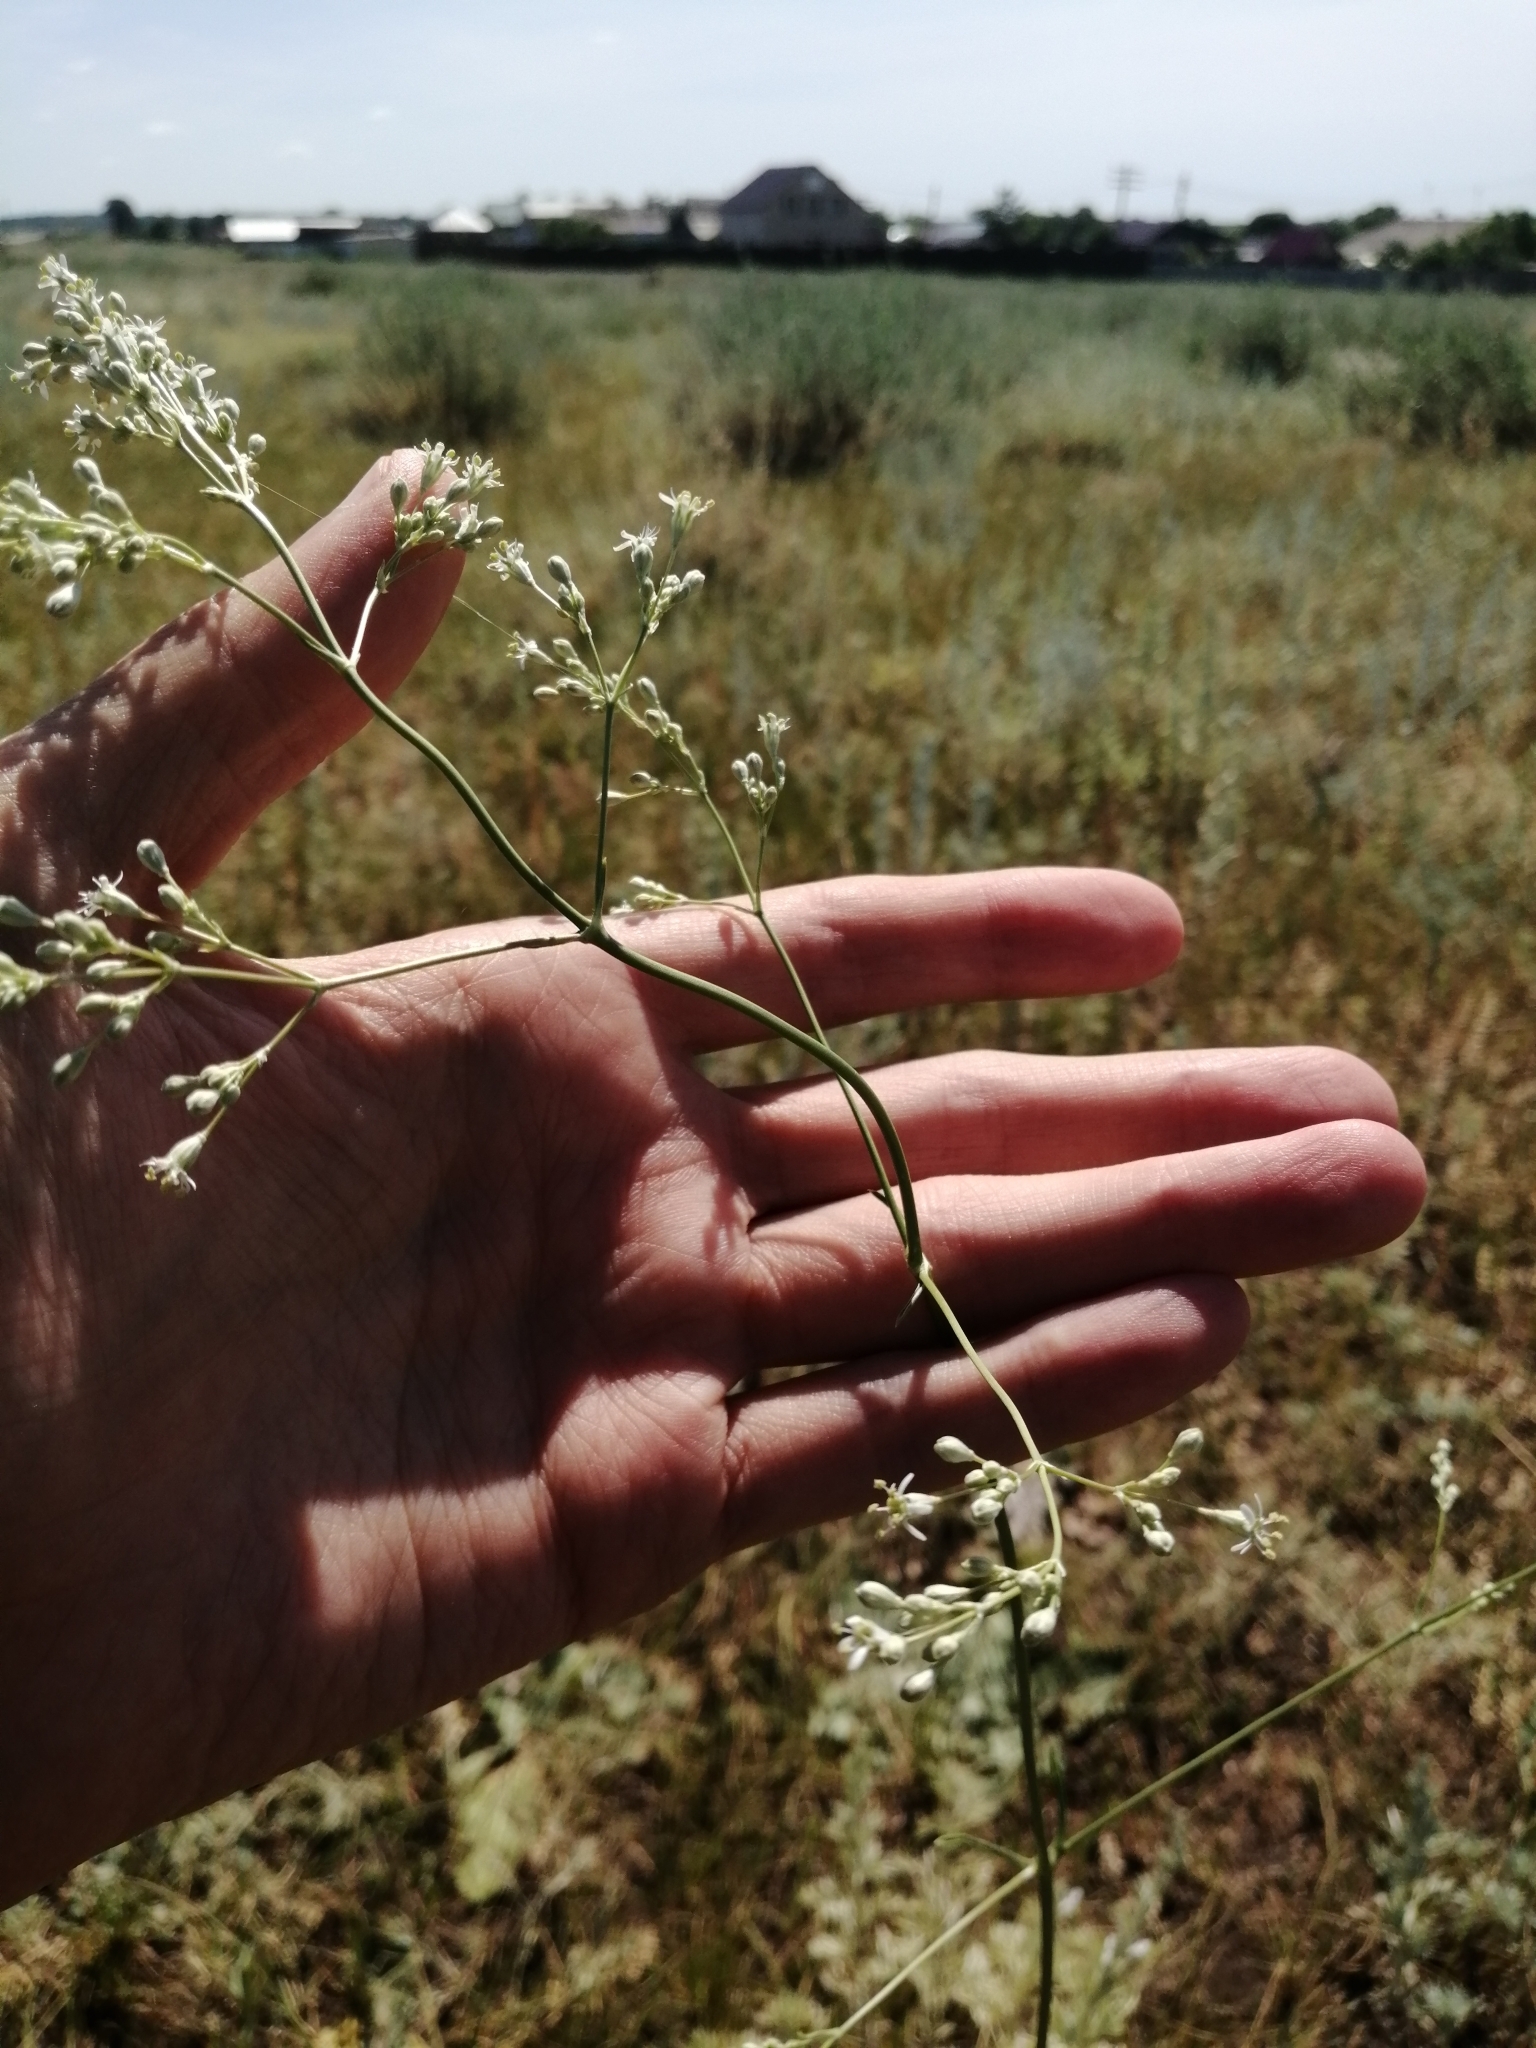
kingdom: Plantae
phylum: Tracheophyta
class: Magnoliopsida
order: Caryophyllales
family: Caryophyllaceae
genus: Silene
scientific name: Silene wolgensis
